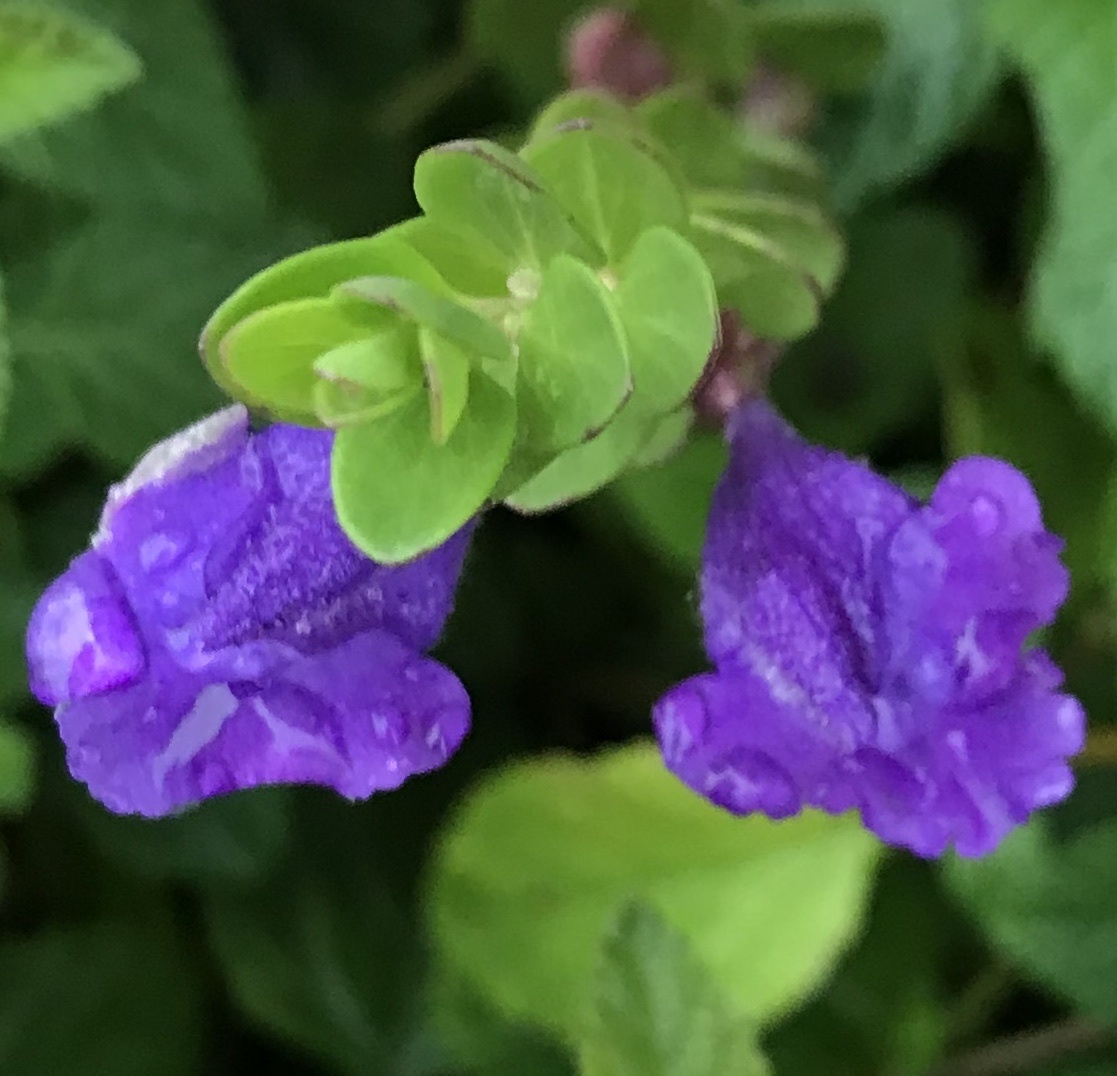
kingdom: Plantae
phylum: Tracheophyta
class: Magnoliopsida
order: Lamiales
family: Lamiaceae
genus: Scutellaria
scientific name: Scutellaria wrightii
